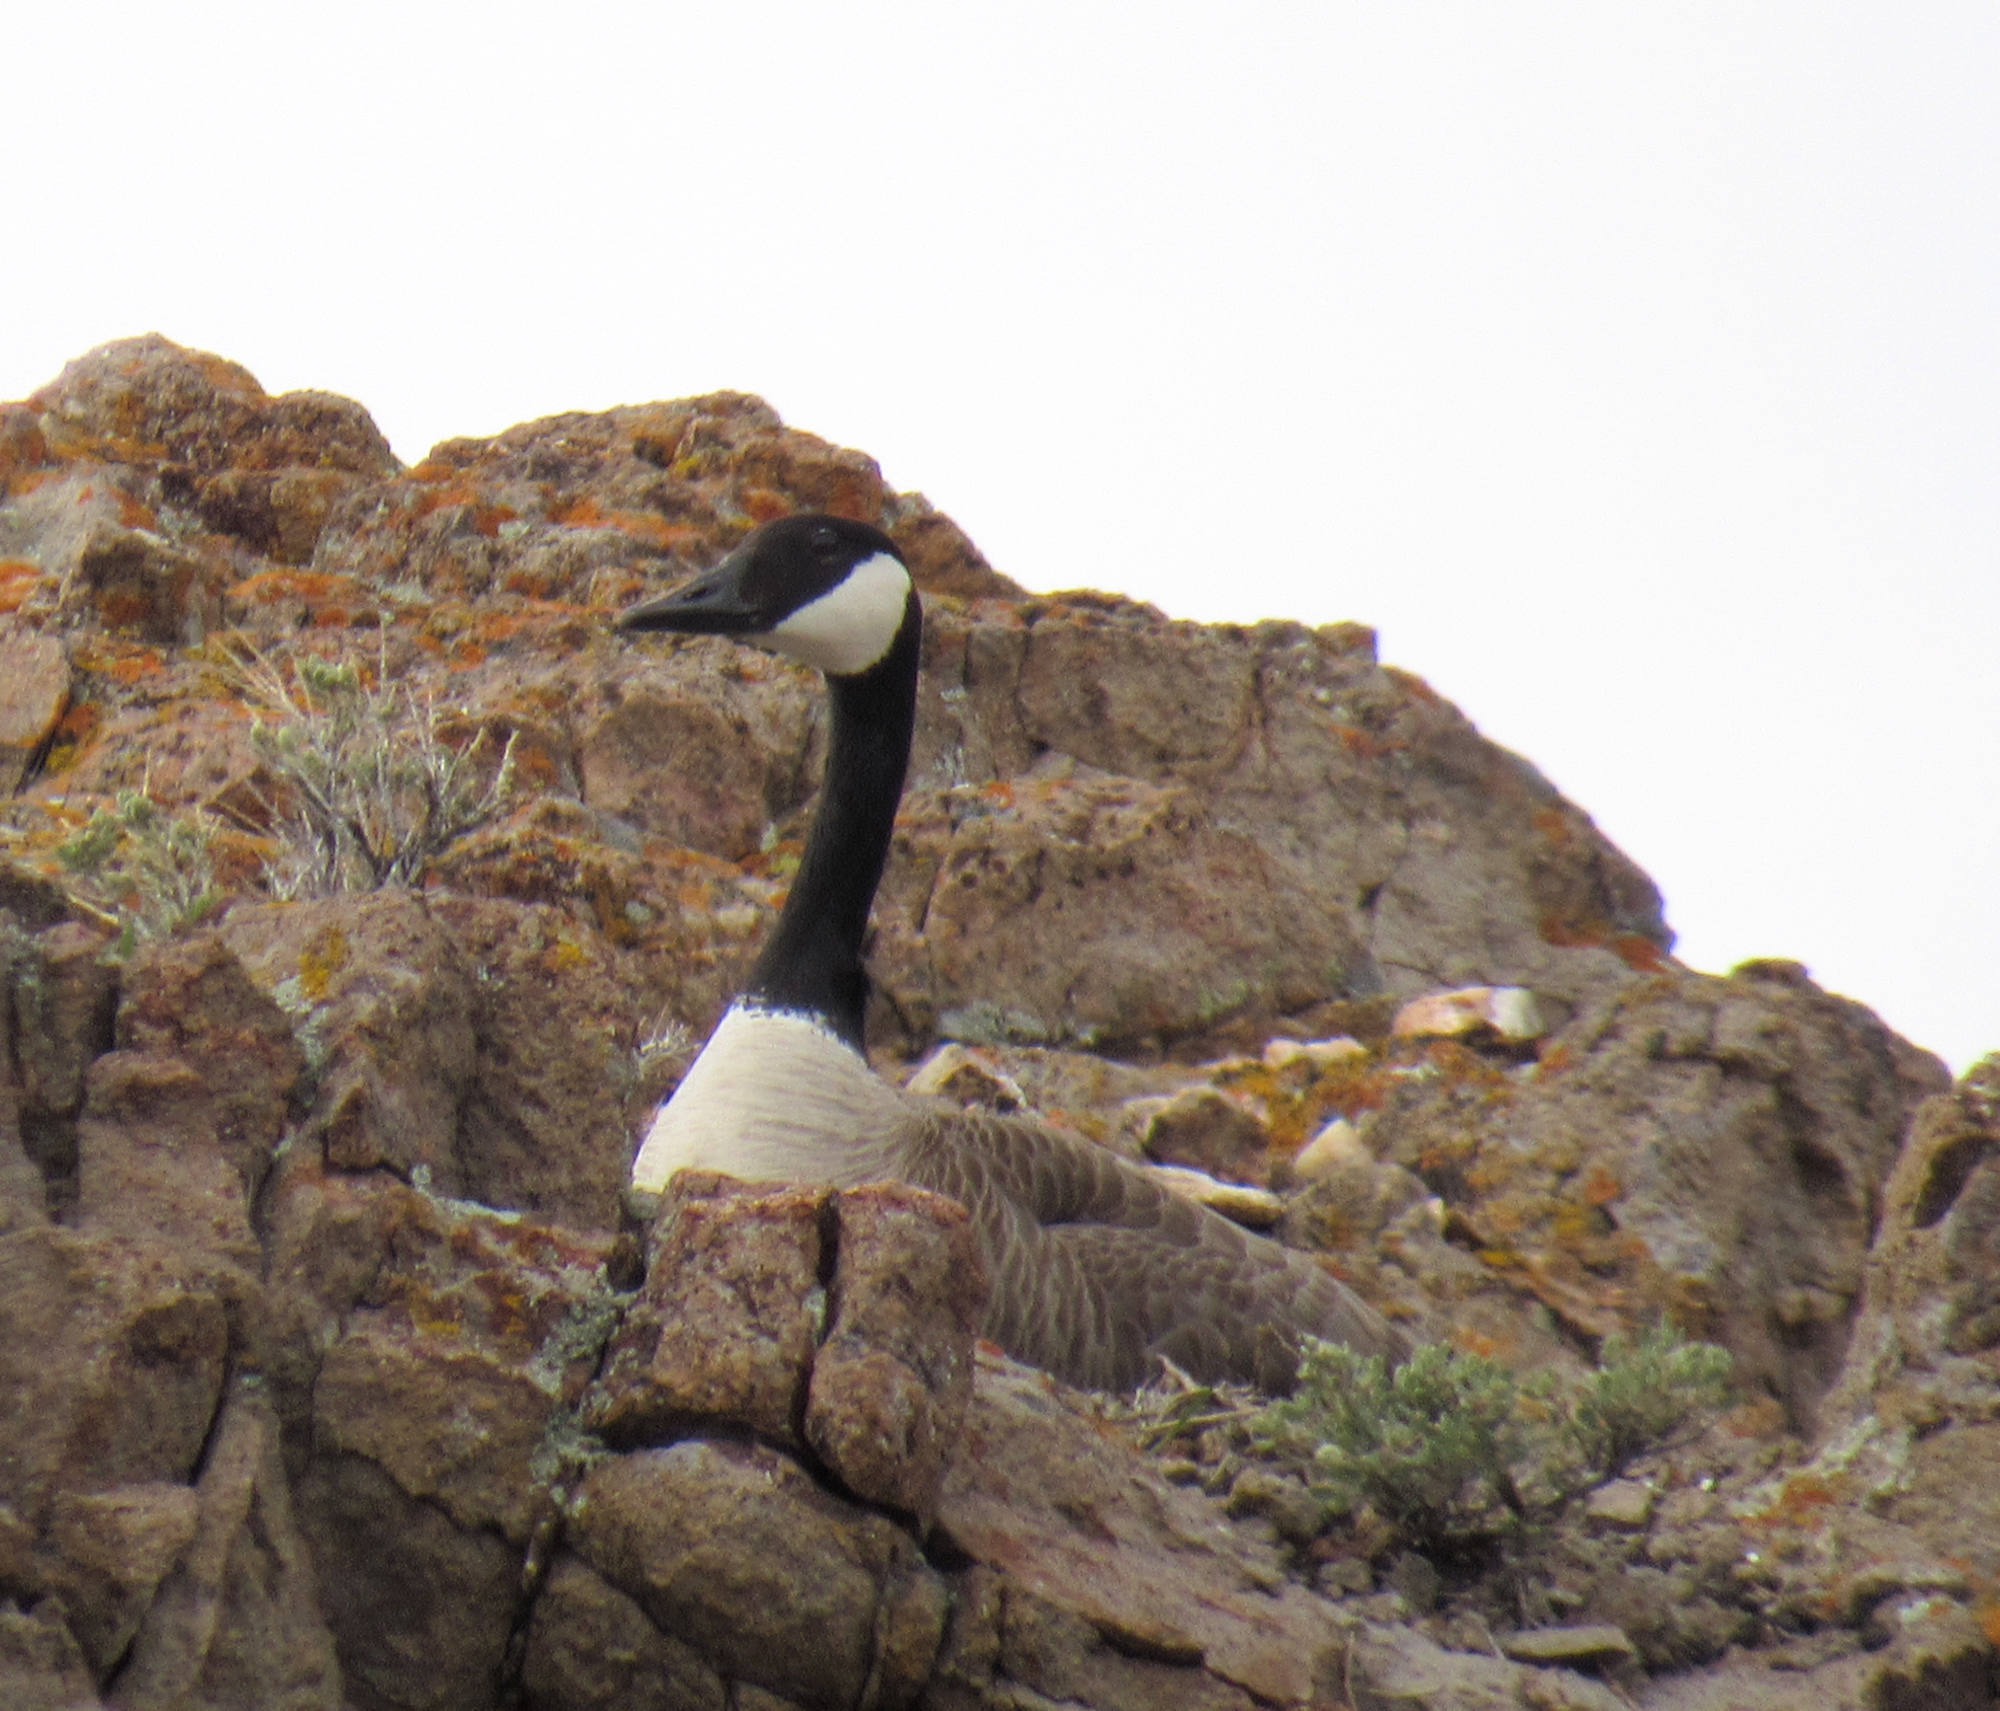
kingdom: Animalia
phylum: Chordata
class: Aves
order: Anseriformes
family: Anatidae
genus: Branta
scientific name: Branta canadensis
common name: Canada goose
